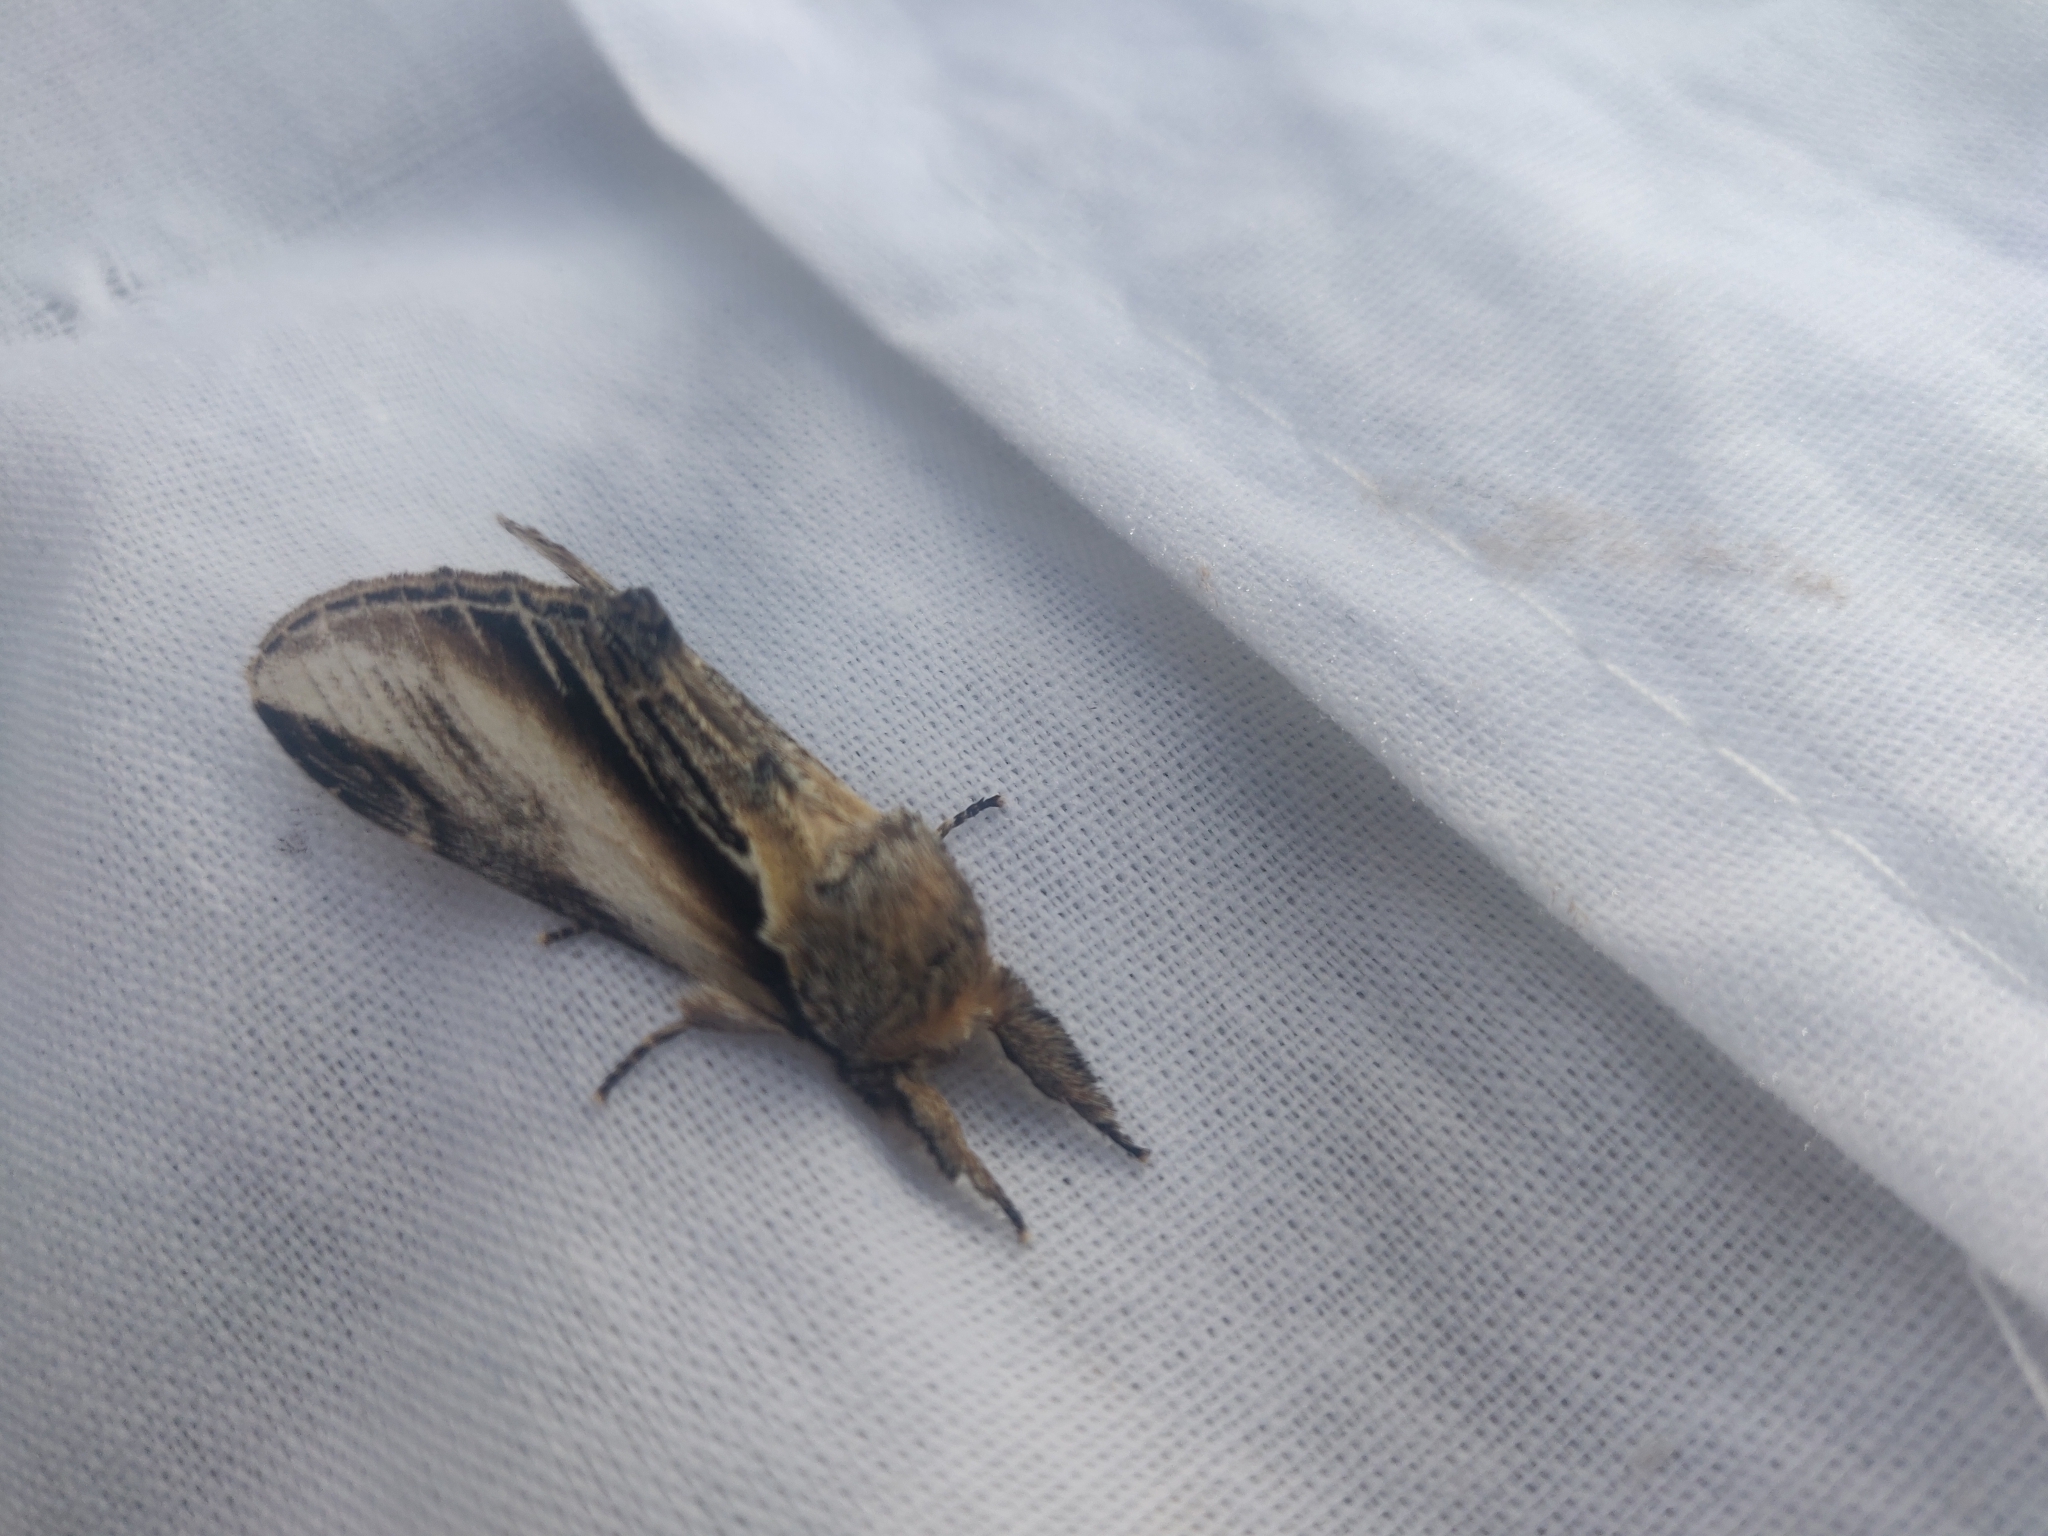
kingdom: Animalia
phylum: Arthropoda
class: Insecta
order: Lepidoptera
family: Notodontidae
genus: Pheosia
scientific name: Pheosia tremula
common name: Swallow prominent
